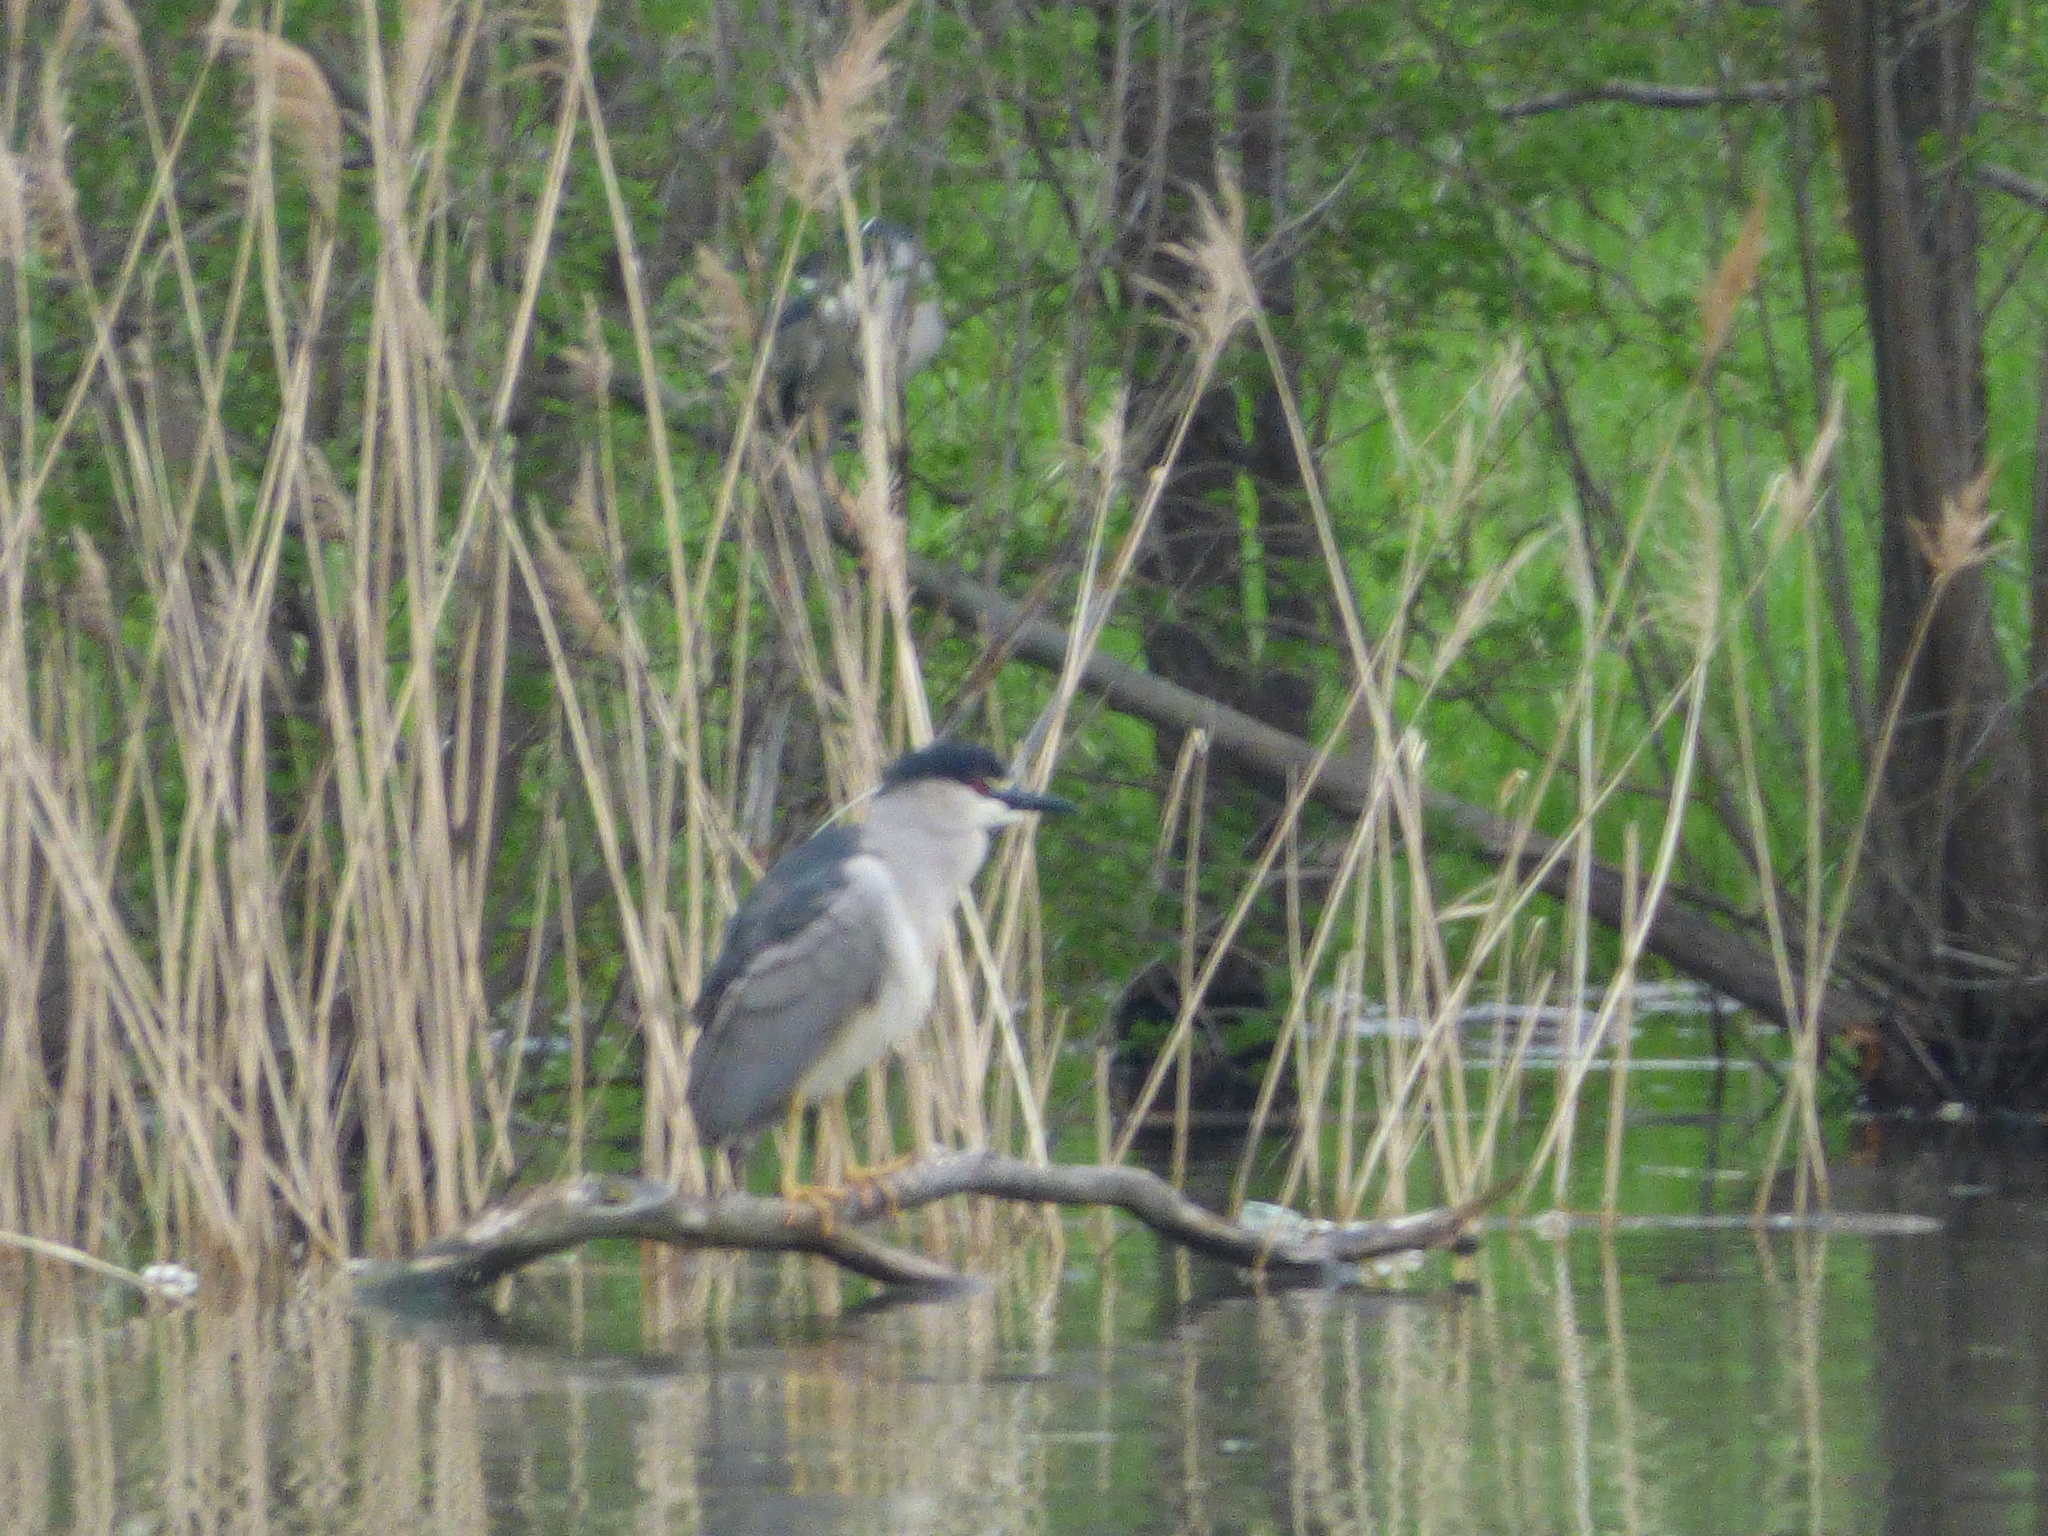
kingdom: Animalia
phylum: Chordata
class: Aves
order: Pelecaniformes
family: Ardeidae
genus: Nycticorax
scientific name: Nycticorax nycticorax
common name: Black-crowned night heron
